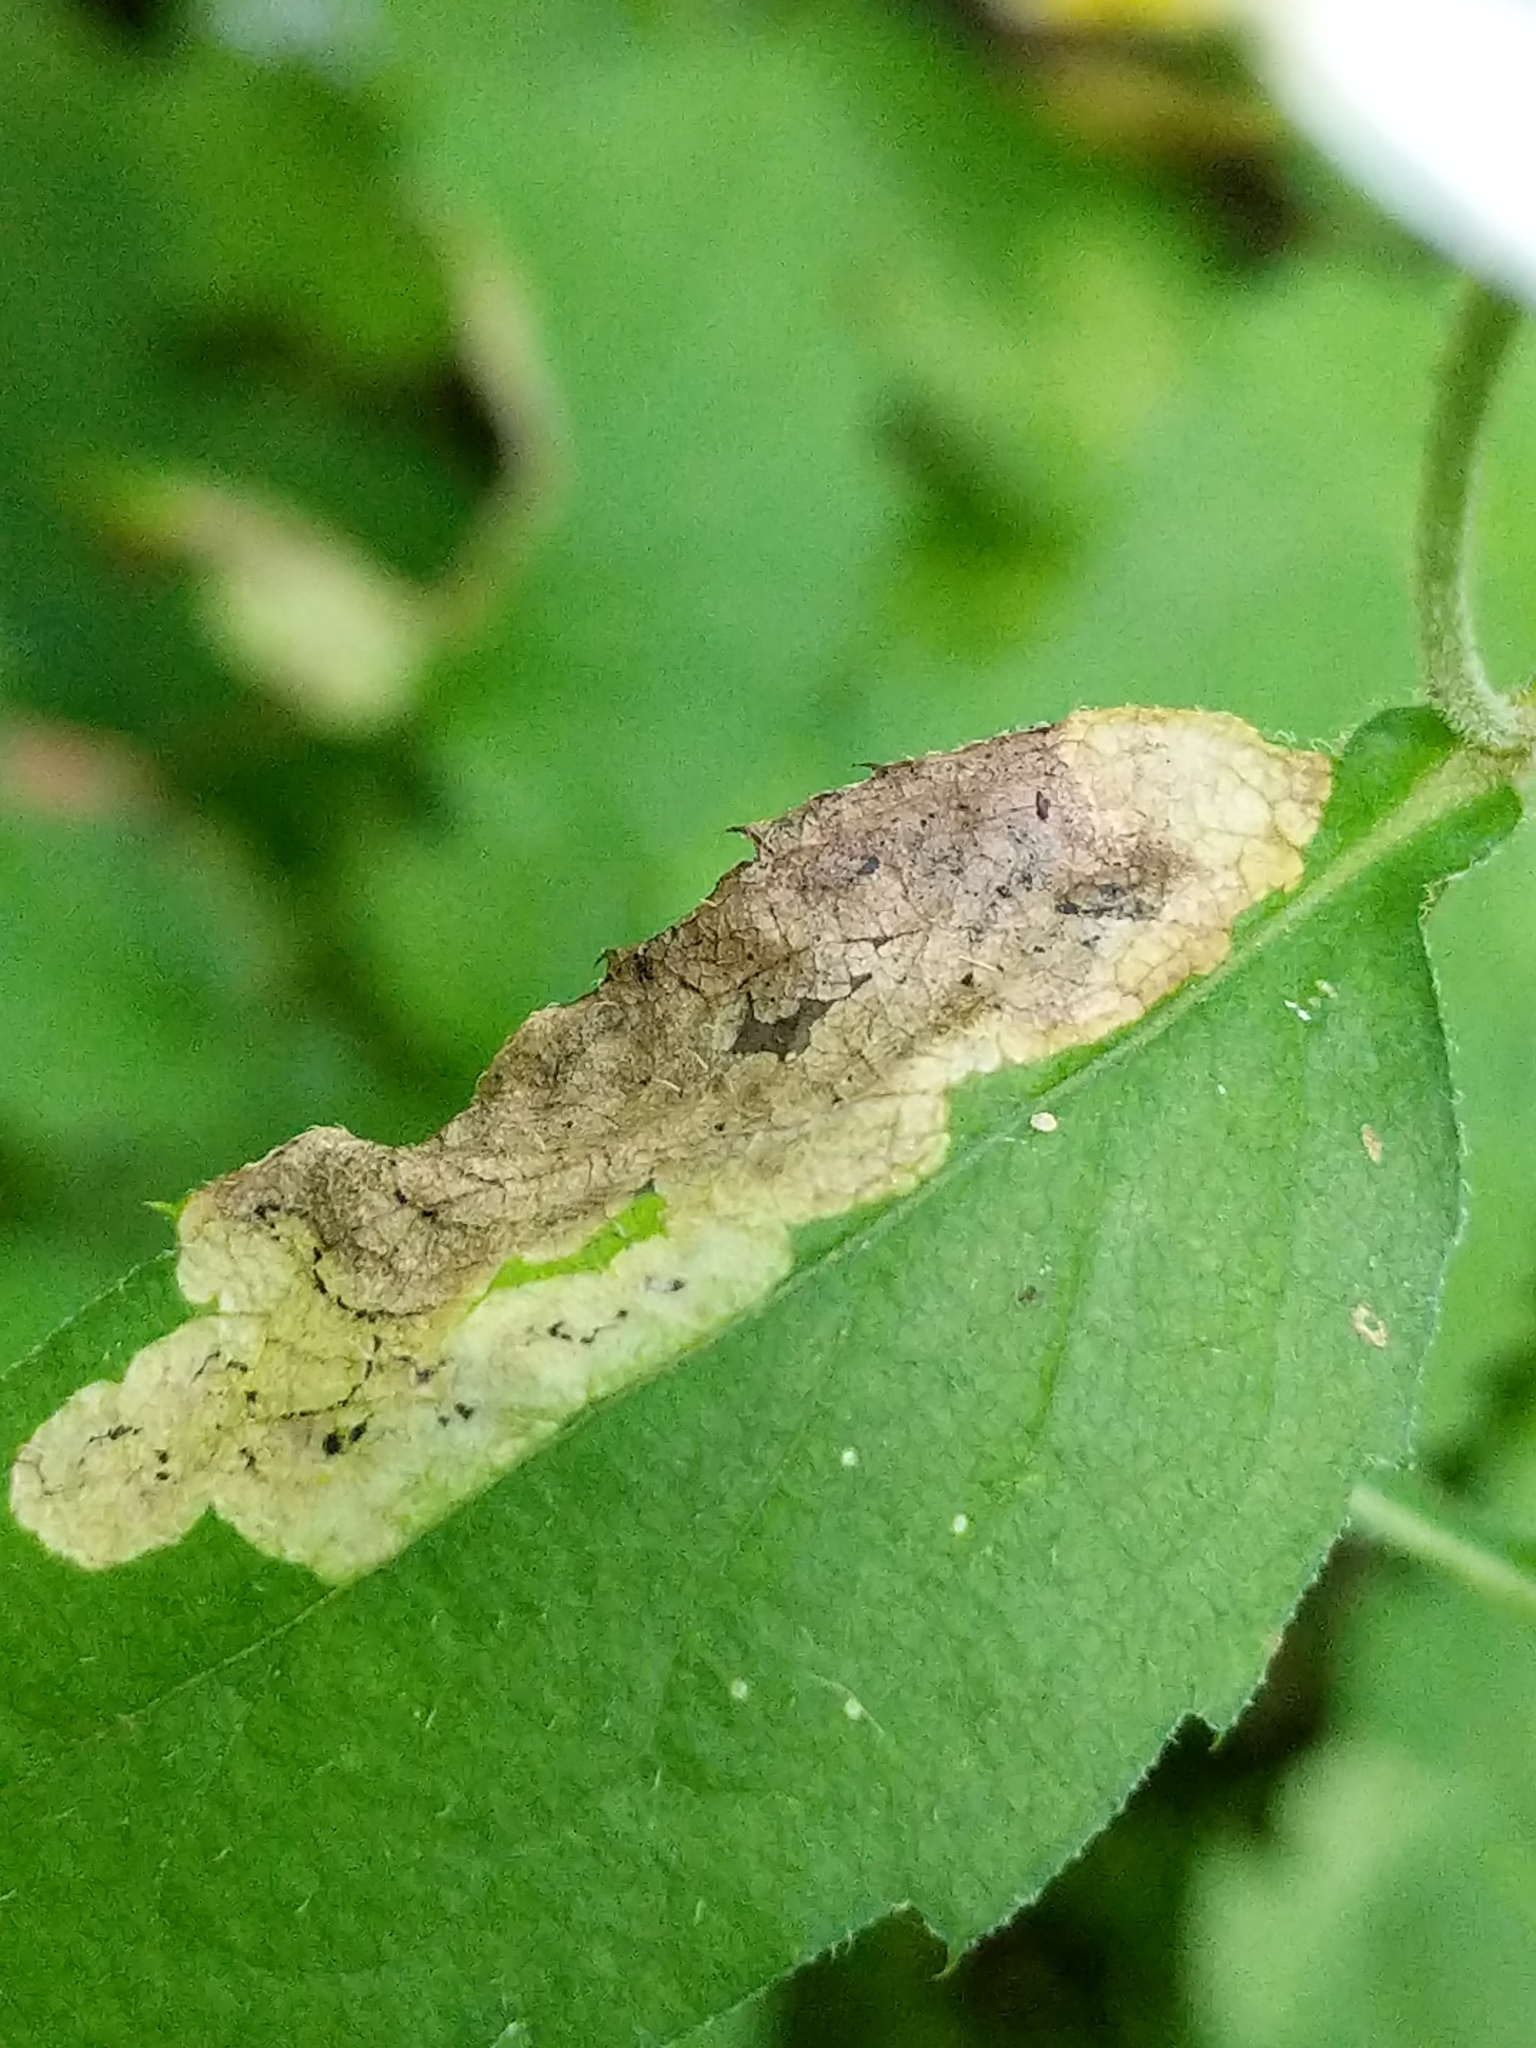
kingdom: Animalia
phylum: Arthropoda
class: Insecta
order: Diptera
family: Agromyzidae
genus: Liriomyza
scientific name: Liriomyza limopsis
